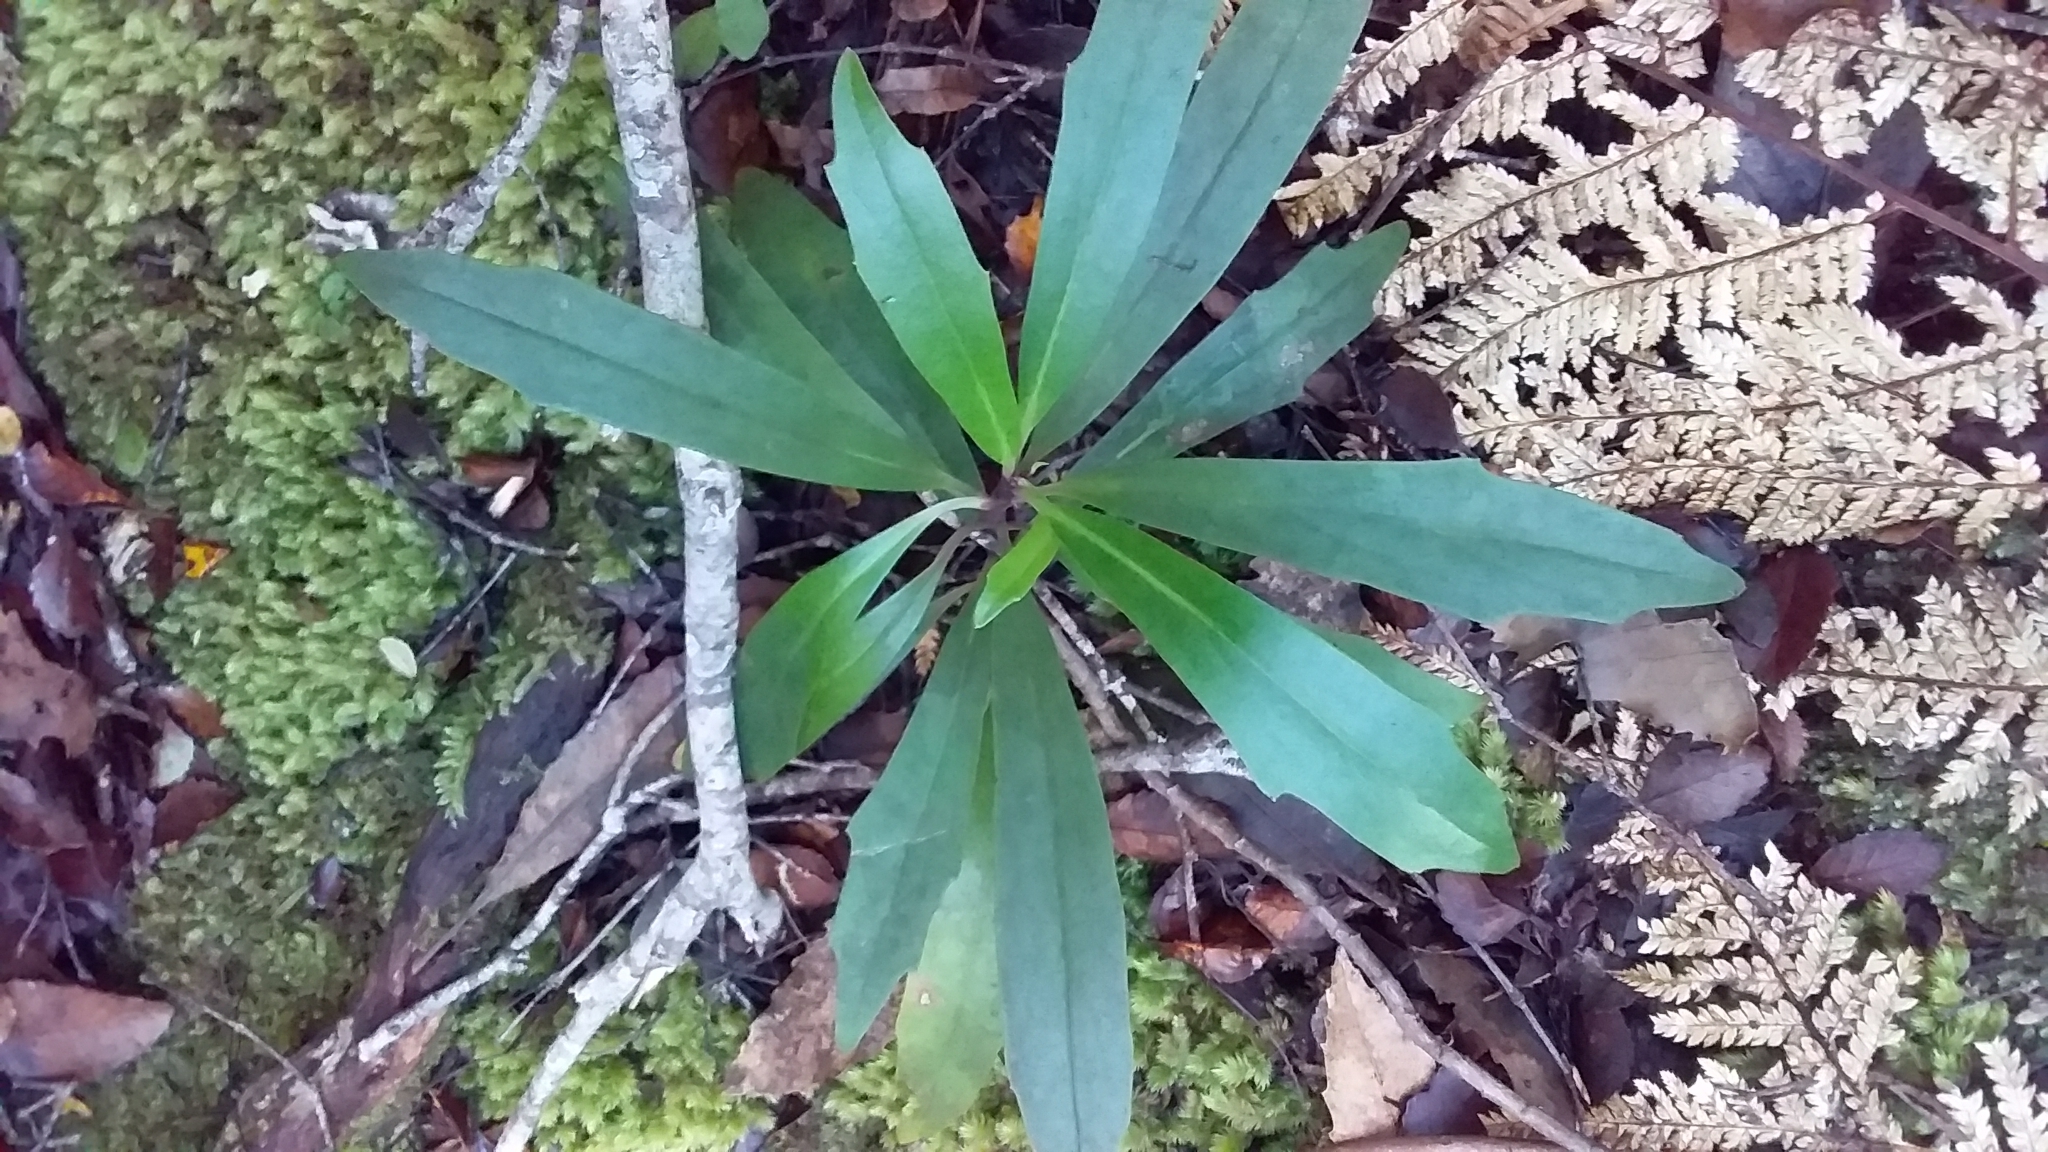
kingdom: Plantae
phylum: Tracheophyta
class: Magnoliopsida
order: Asterales
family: Asteraceae
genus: Brachyglottis
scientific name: Brachyglottis kirkii
